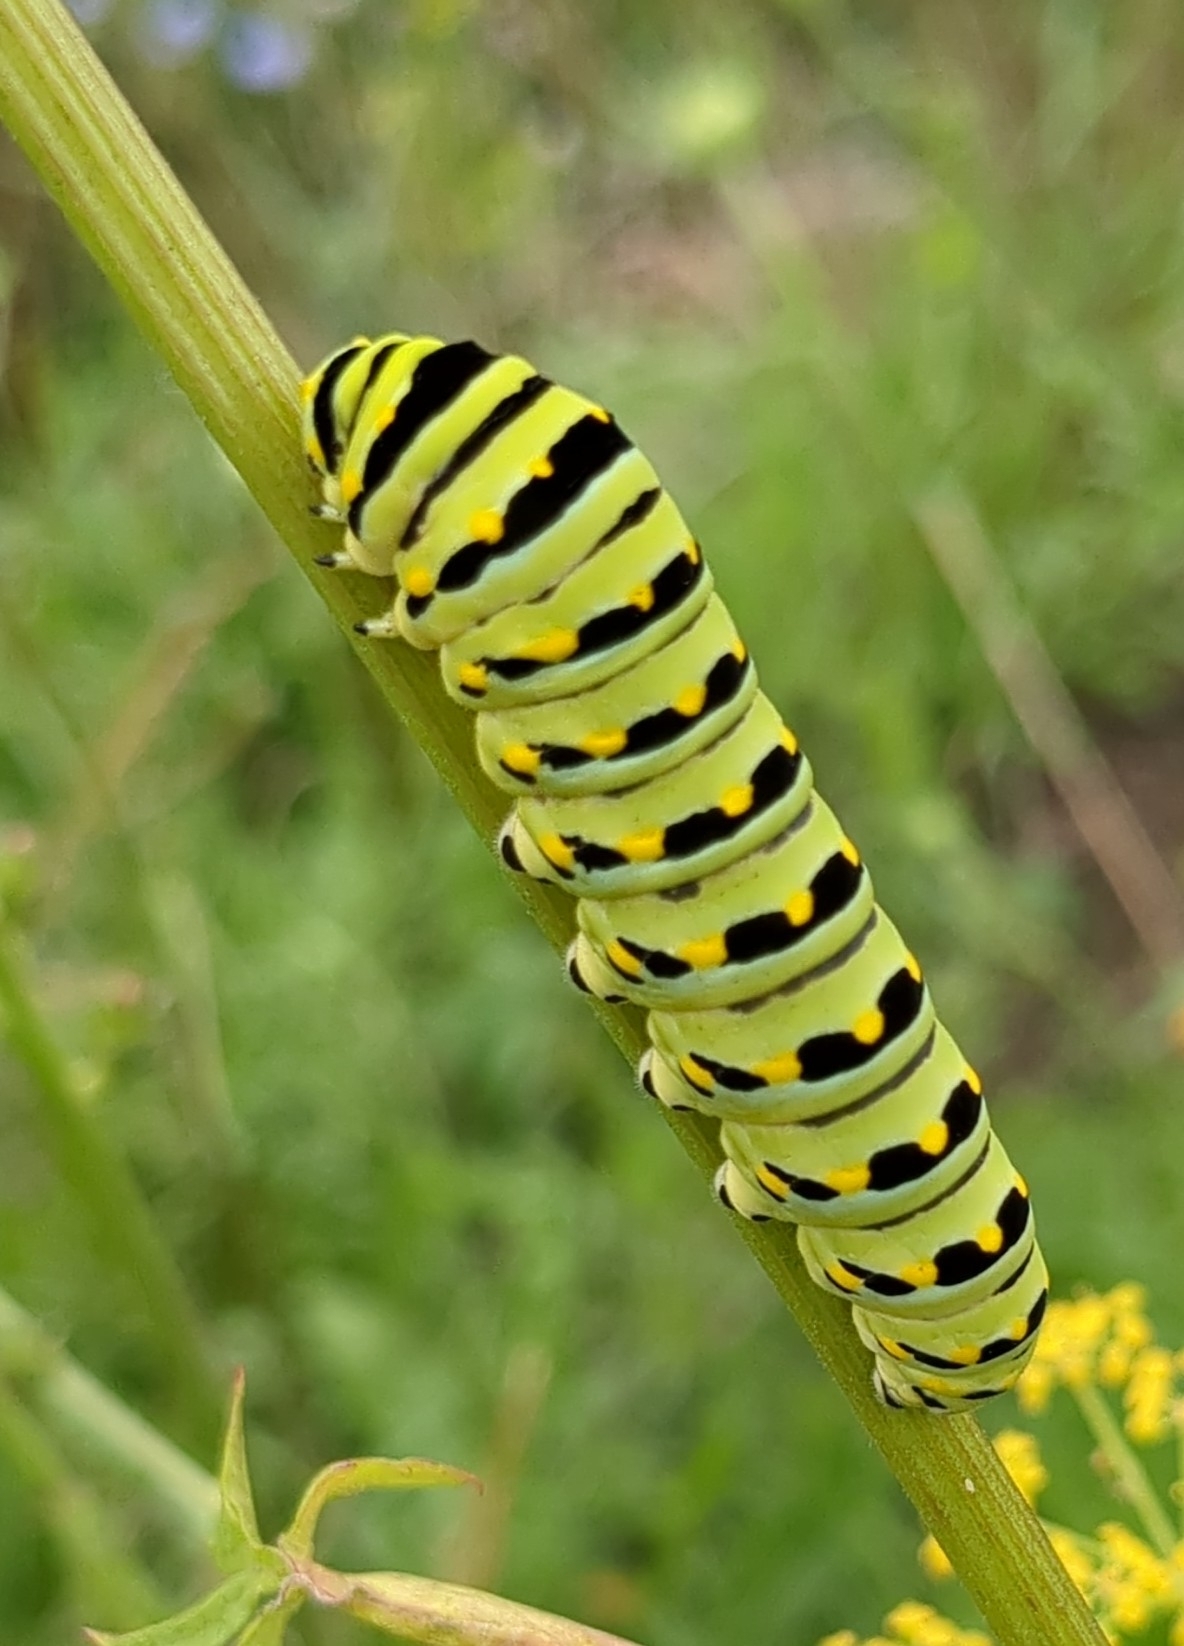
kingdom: Animalia
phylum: Arthropoda
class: Insecta
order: Lepidoptera
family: Papilionidae
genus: Papilio
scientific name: Papilio polyxenes
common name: Black swallowtail
